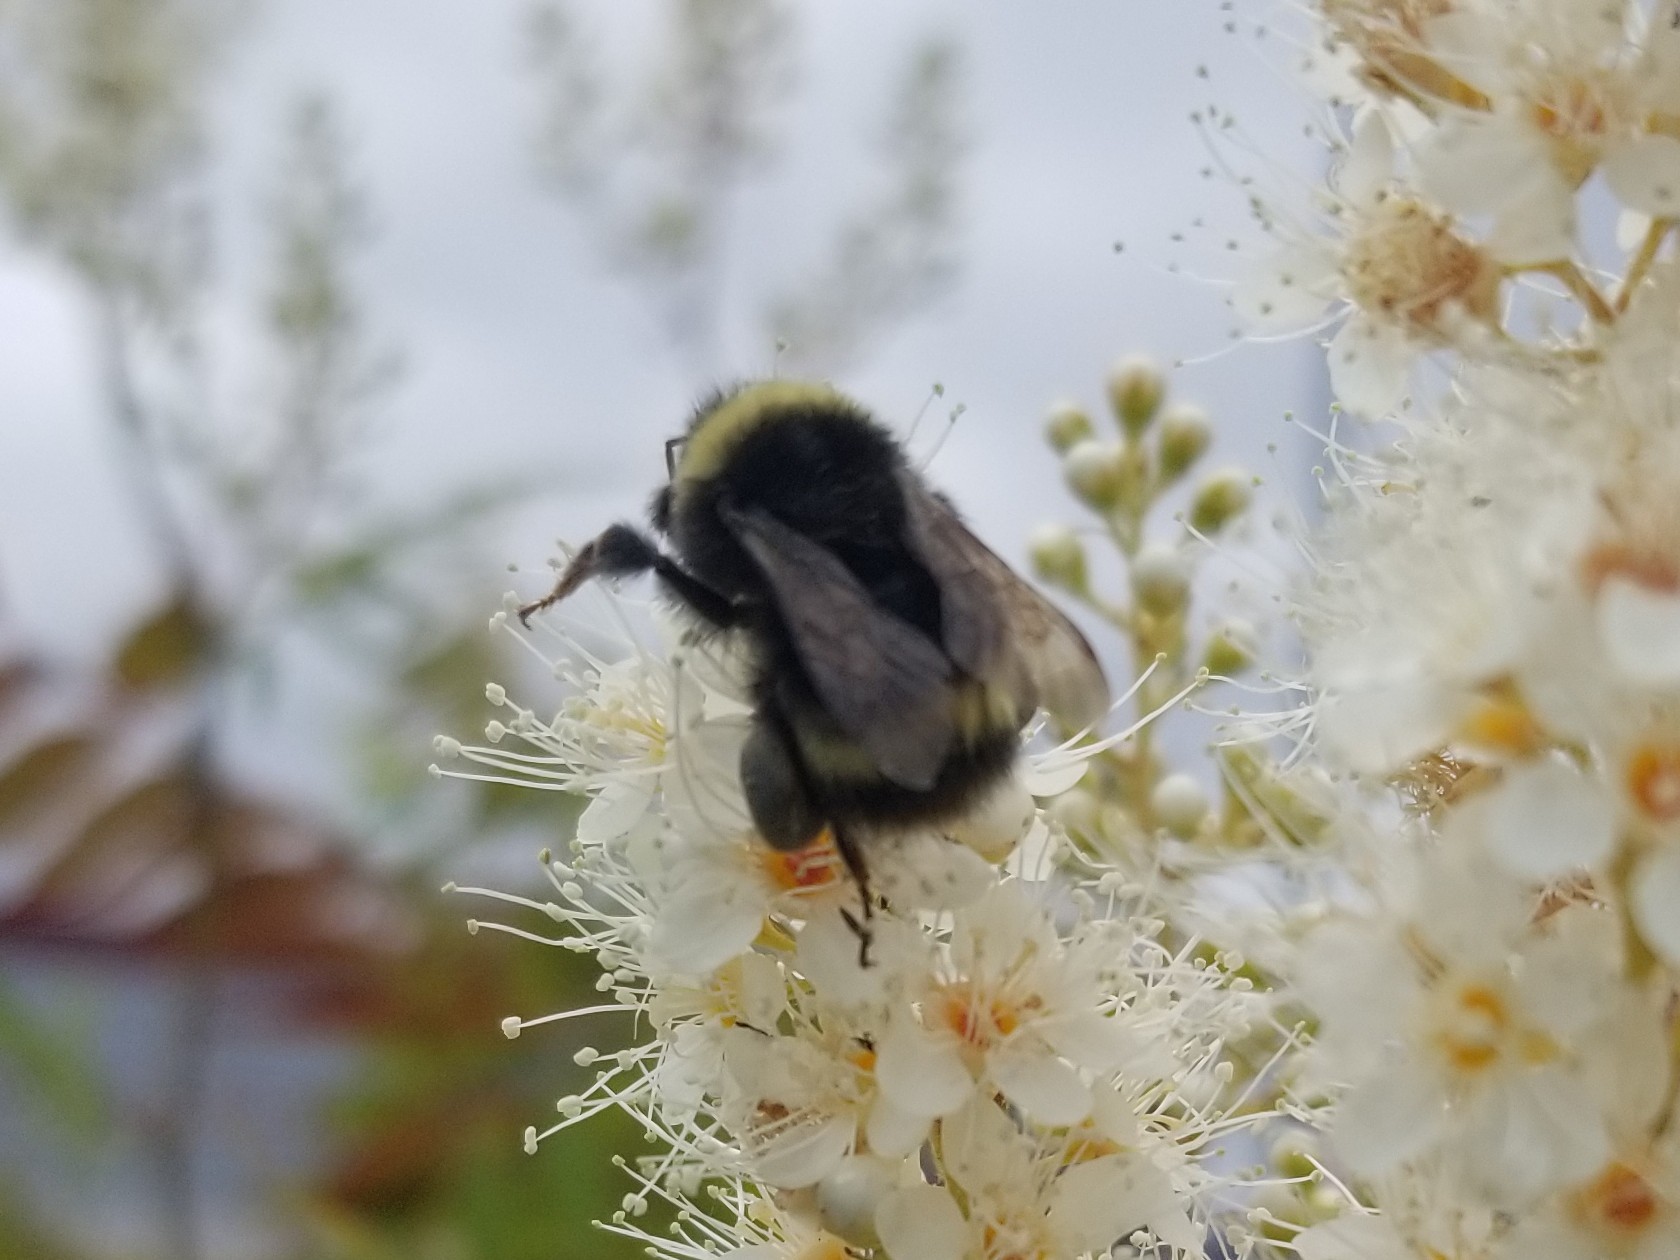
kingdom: Animalia
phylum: Arthropoda
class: Insecta
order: Hymenoptera
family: Apidae
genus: Bombus
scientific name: Bombus mckayi
